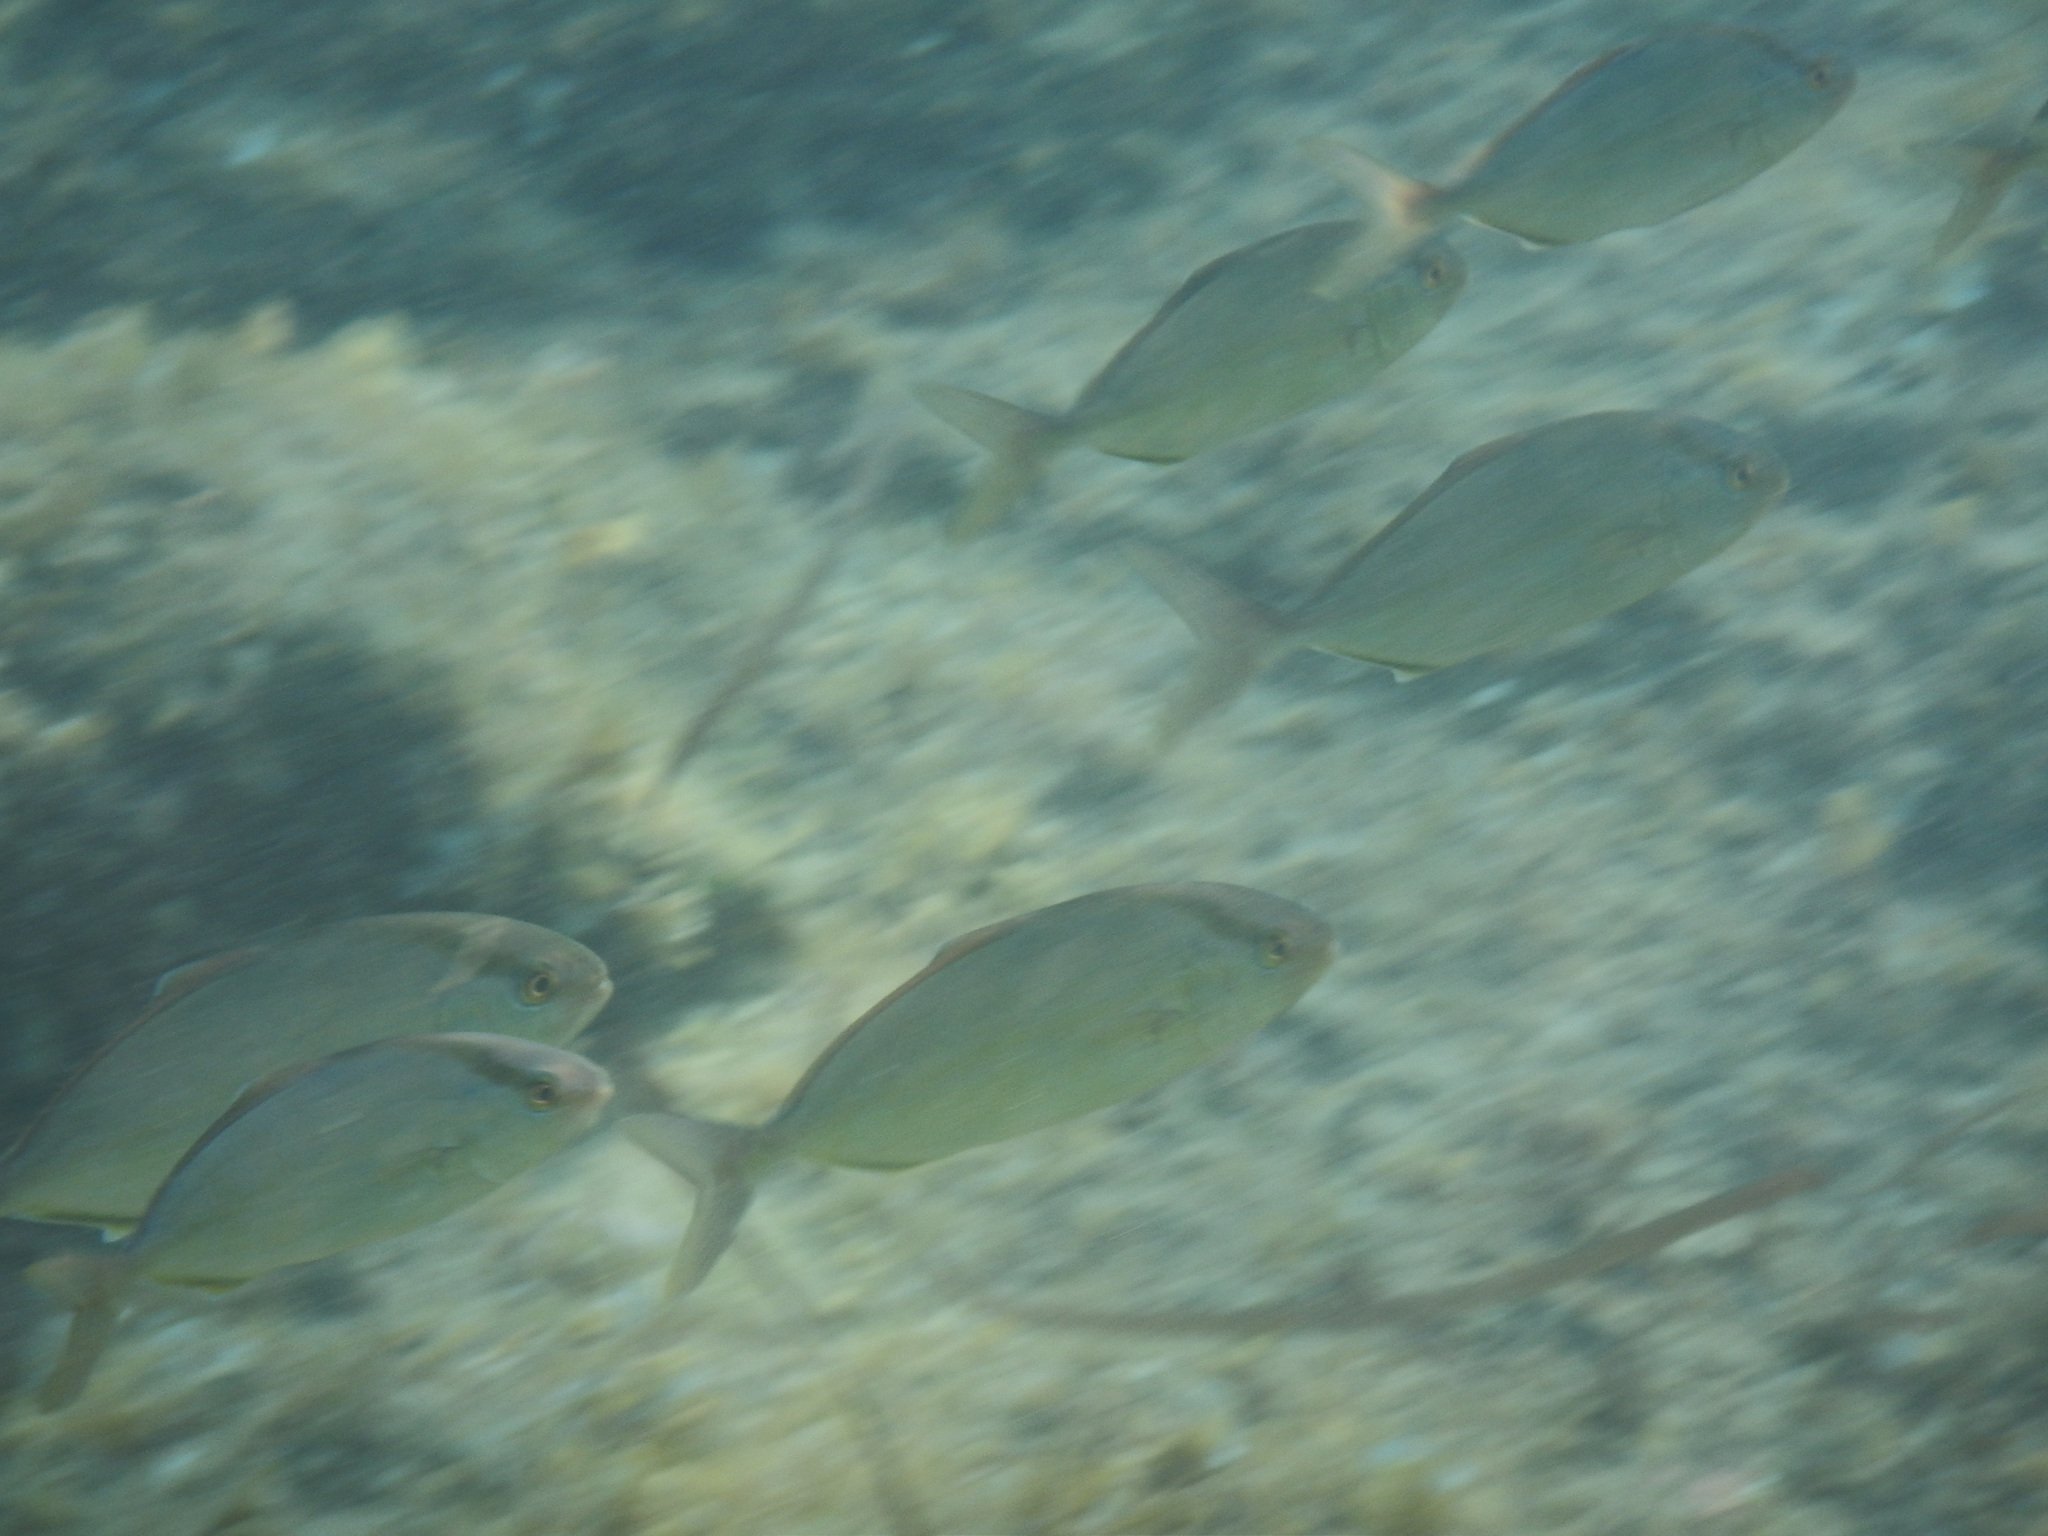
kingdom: Animalia
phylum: Chordata
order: Perciformes
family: Carangidae
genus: Seriola
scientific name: Seriola dumerili
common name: Greater amberjack
